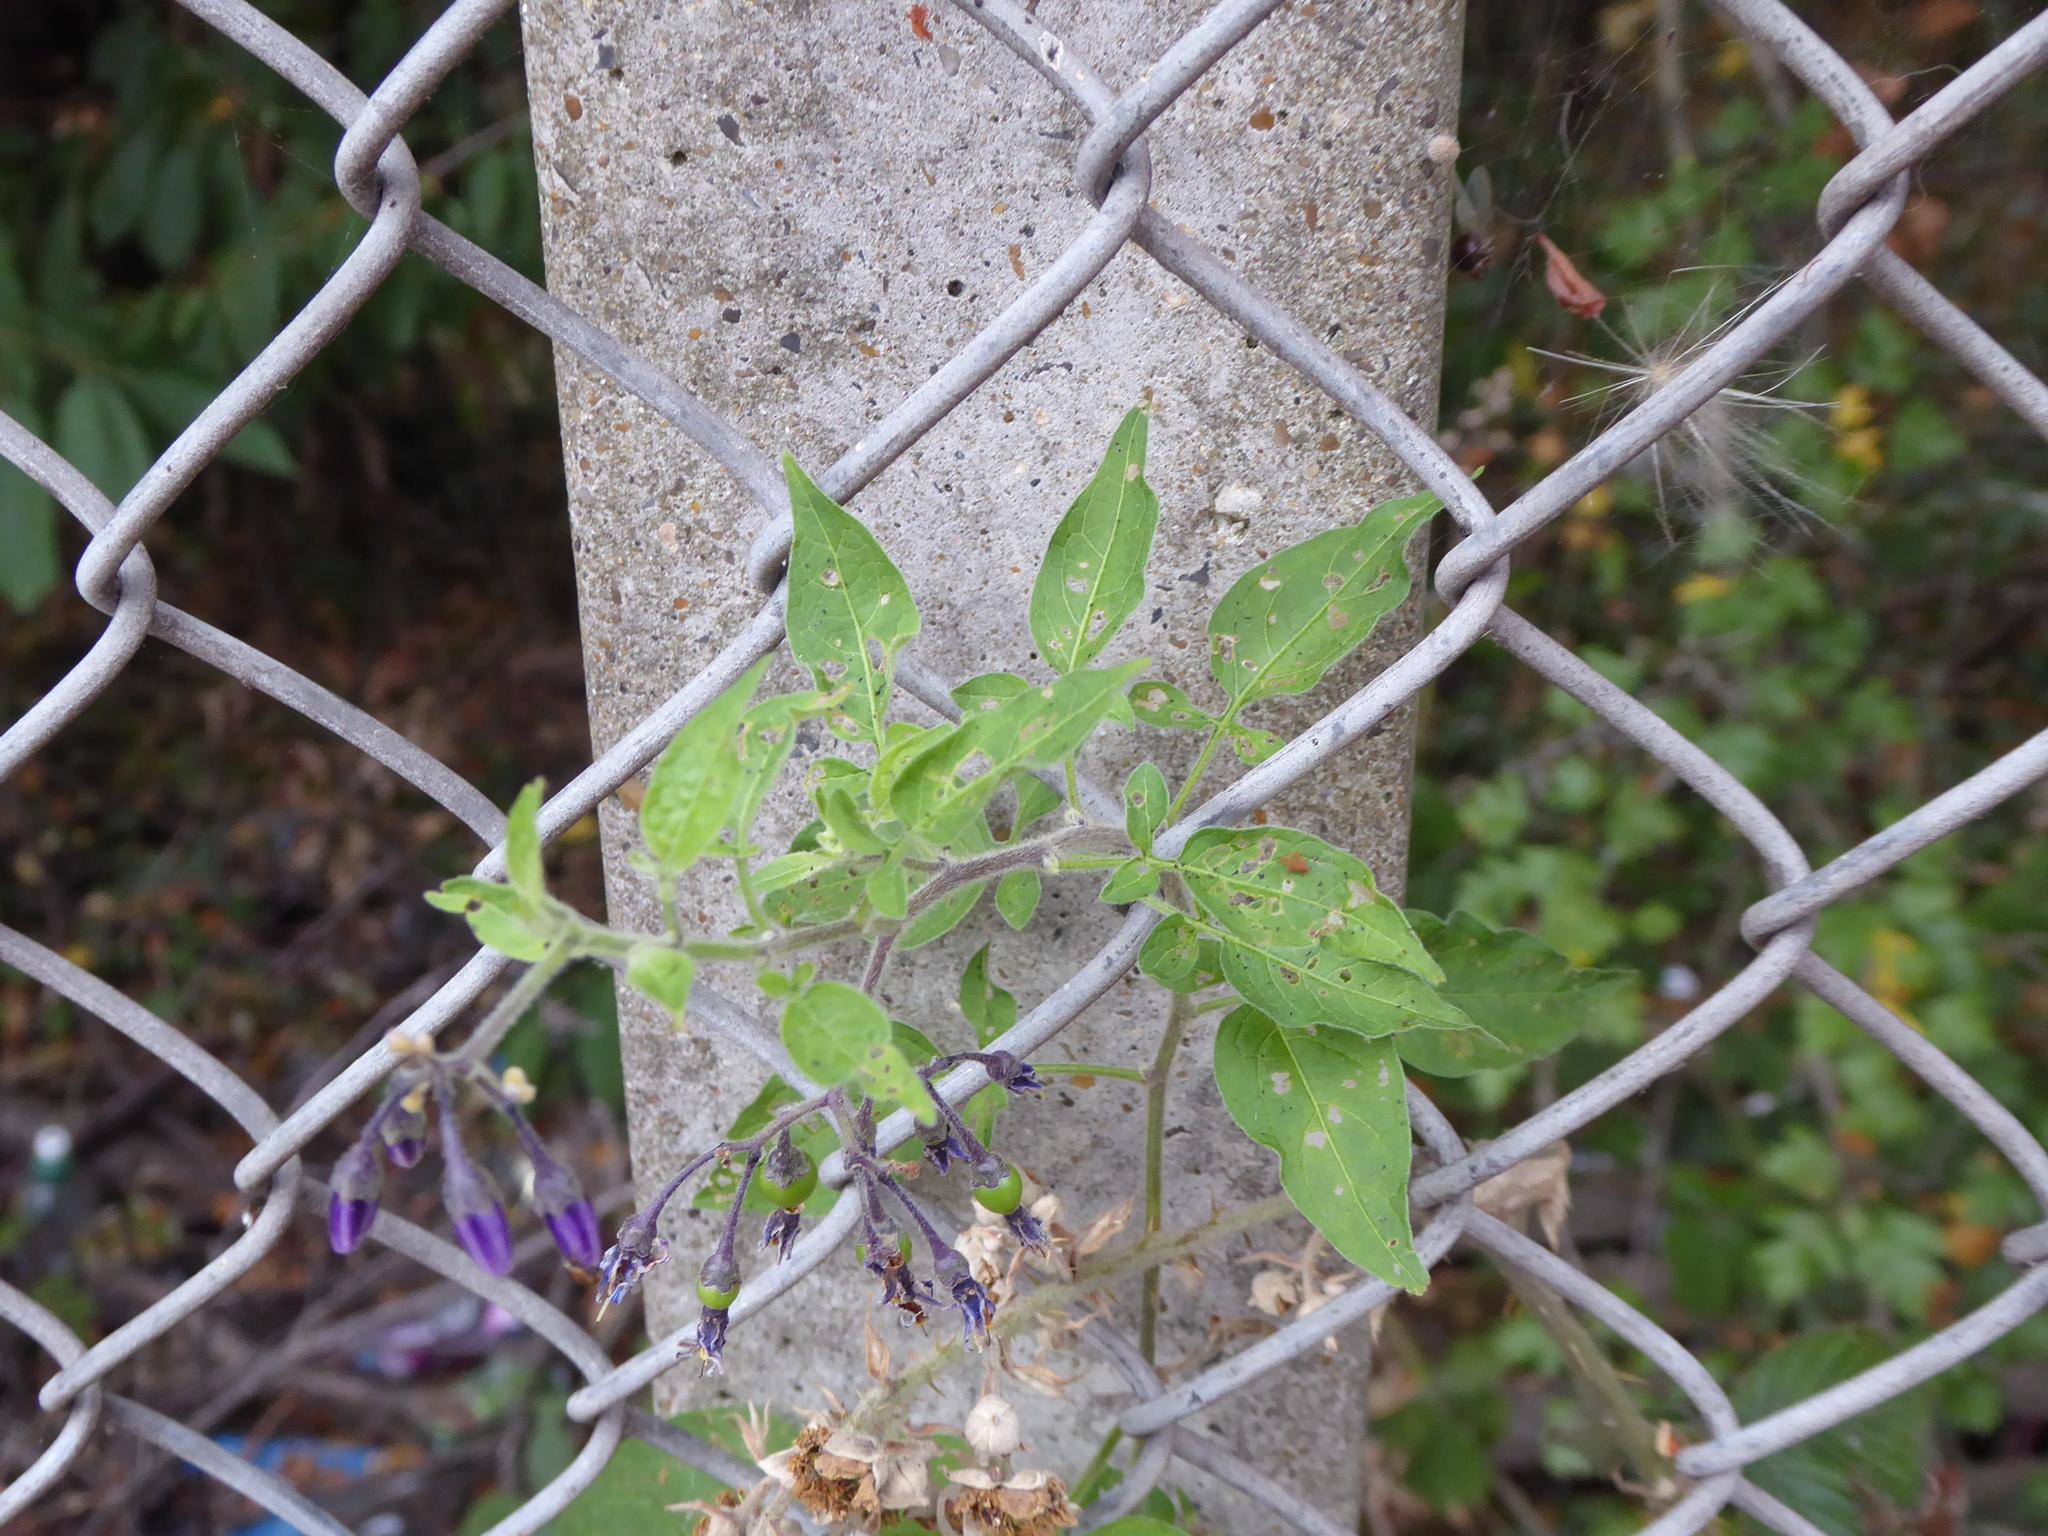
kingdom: Plantae
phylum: Tracheophyta
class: Magnoliopsida
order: Solanales
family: Solanaceae
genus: Solanum
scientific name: Solanum dulcamara
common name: Climbing nightshade
